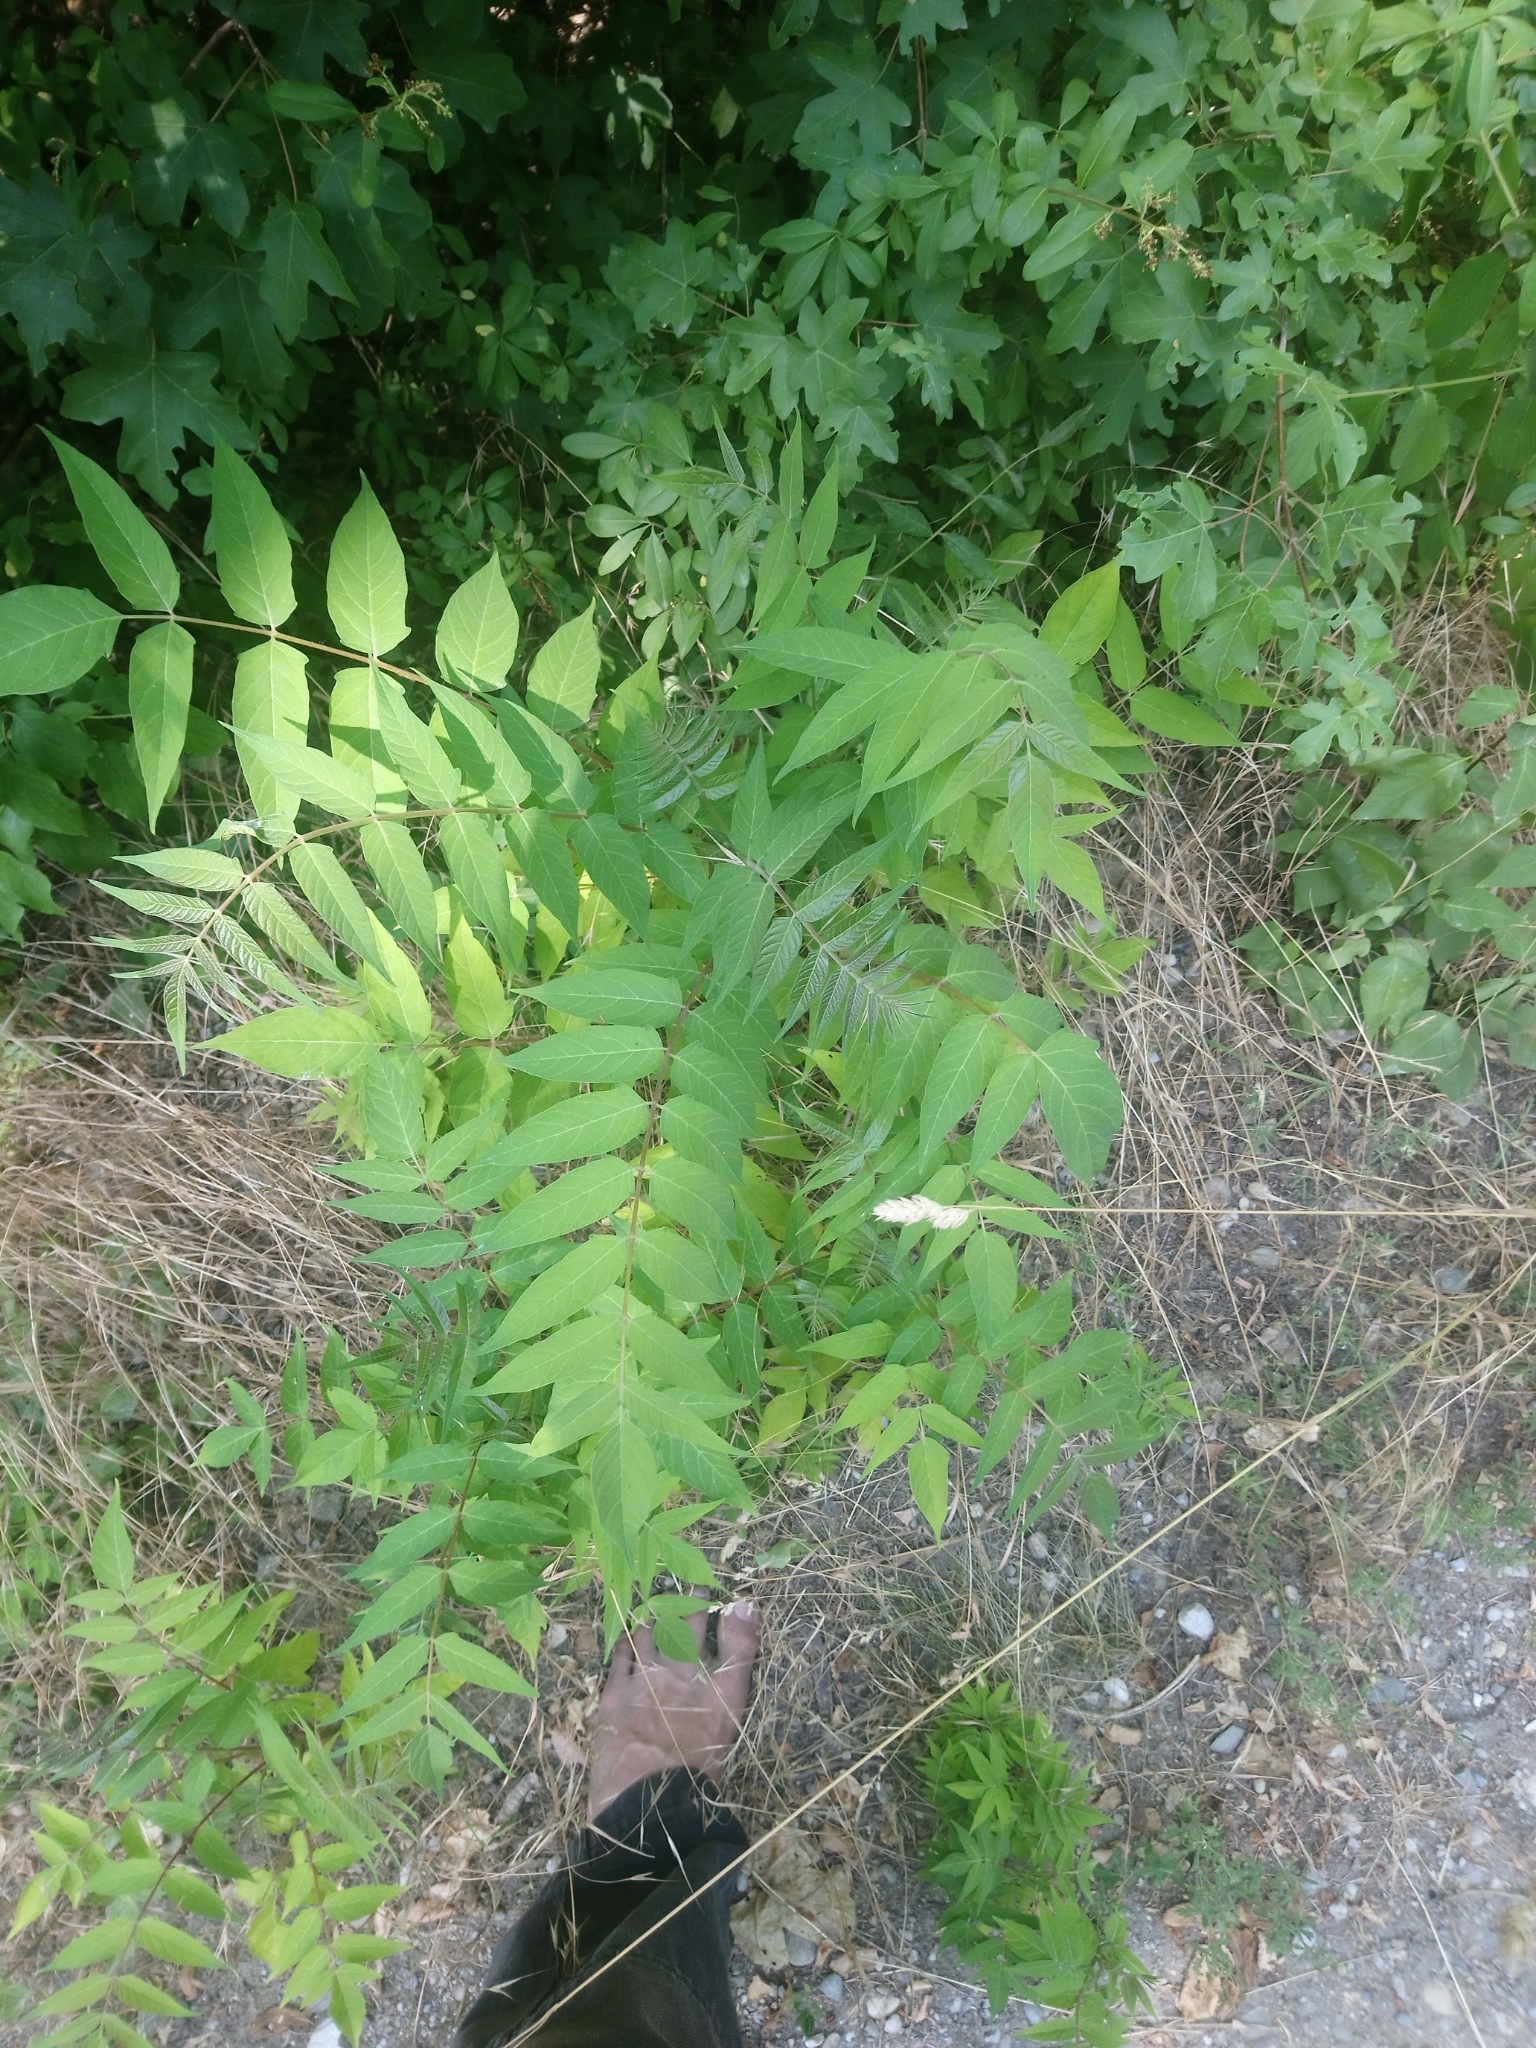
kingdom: Plantae
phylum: Tracheophyta
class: Magnoliopsida
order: Sapindales
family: Simaroubaceae
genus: Ailanthus
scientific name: Ailanthus altissima
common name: Tree-of-heaven
